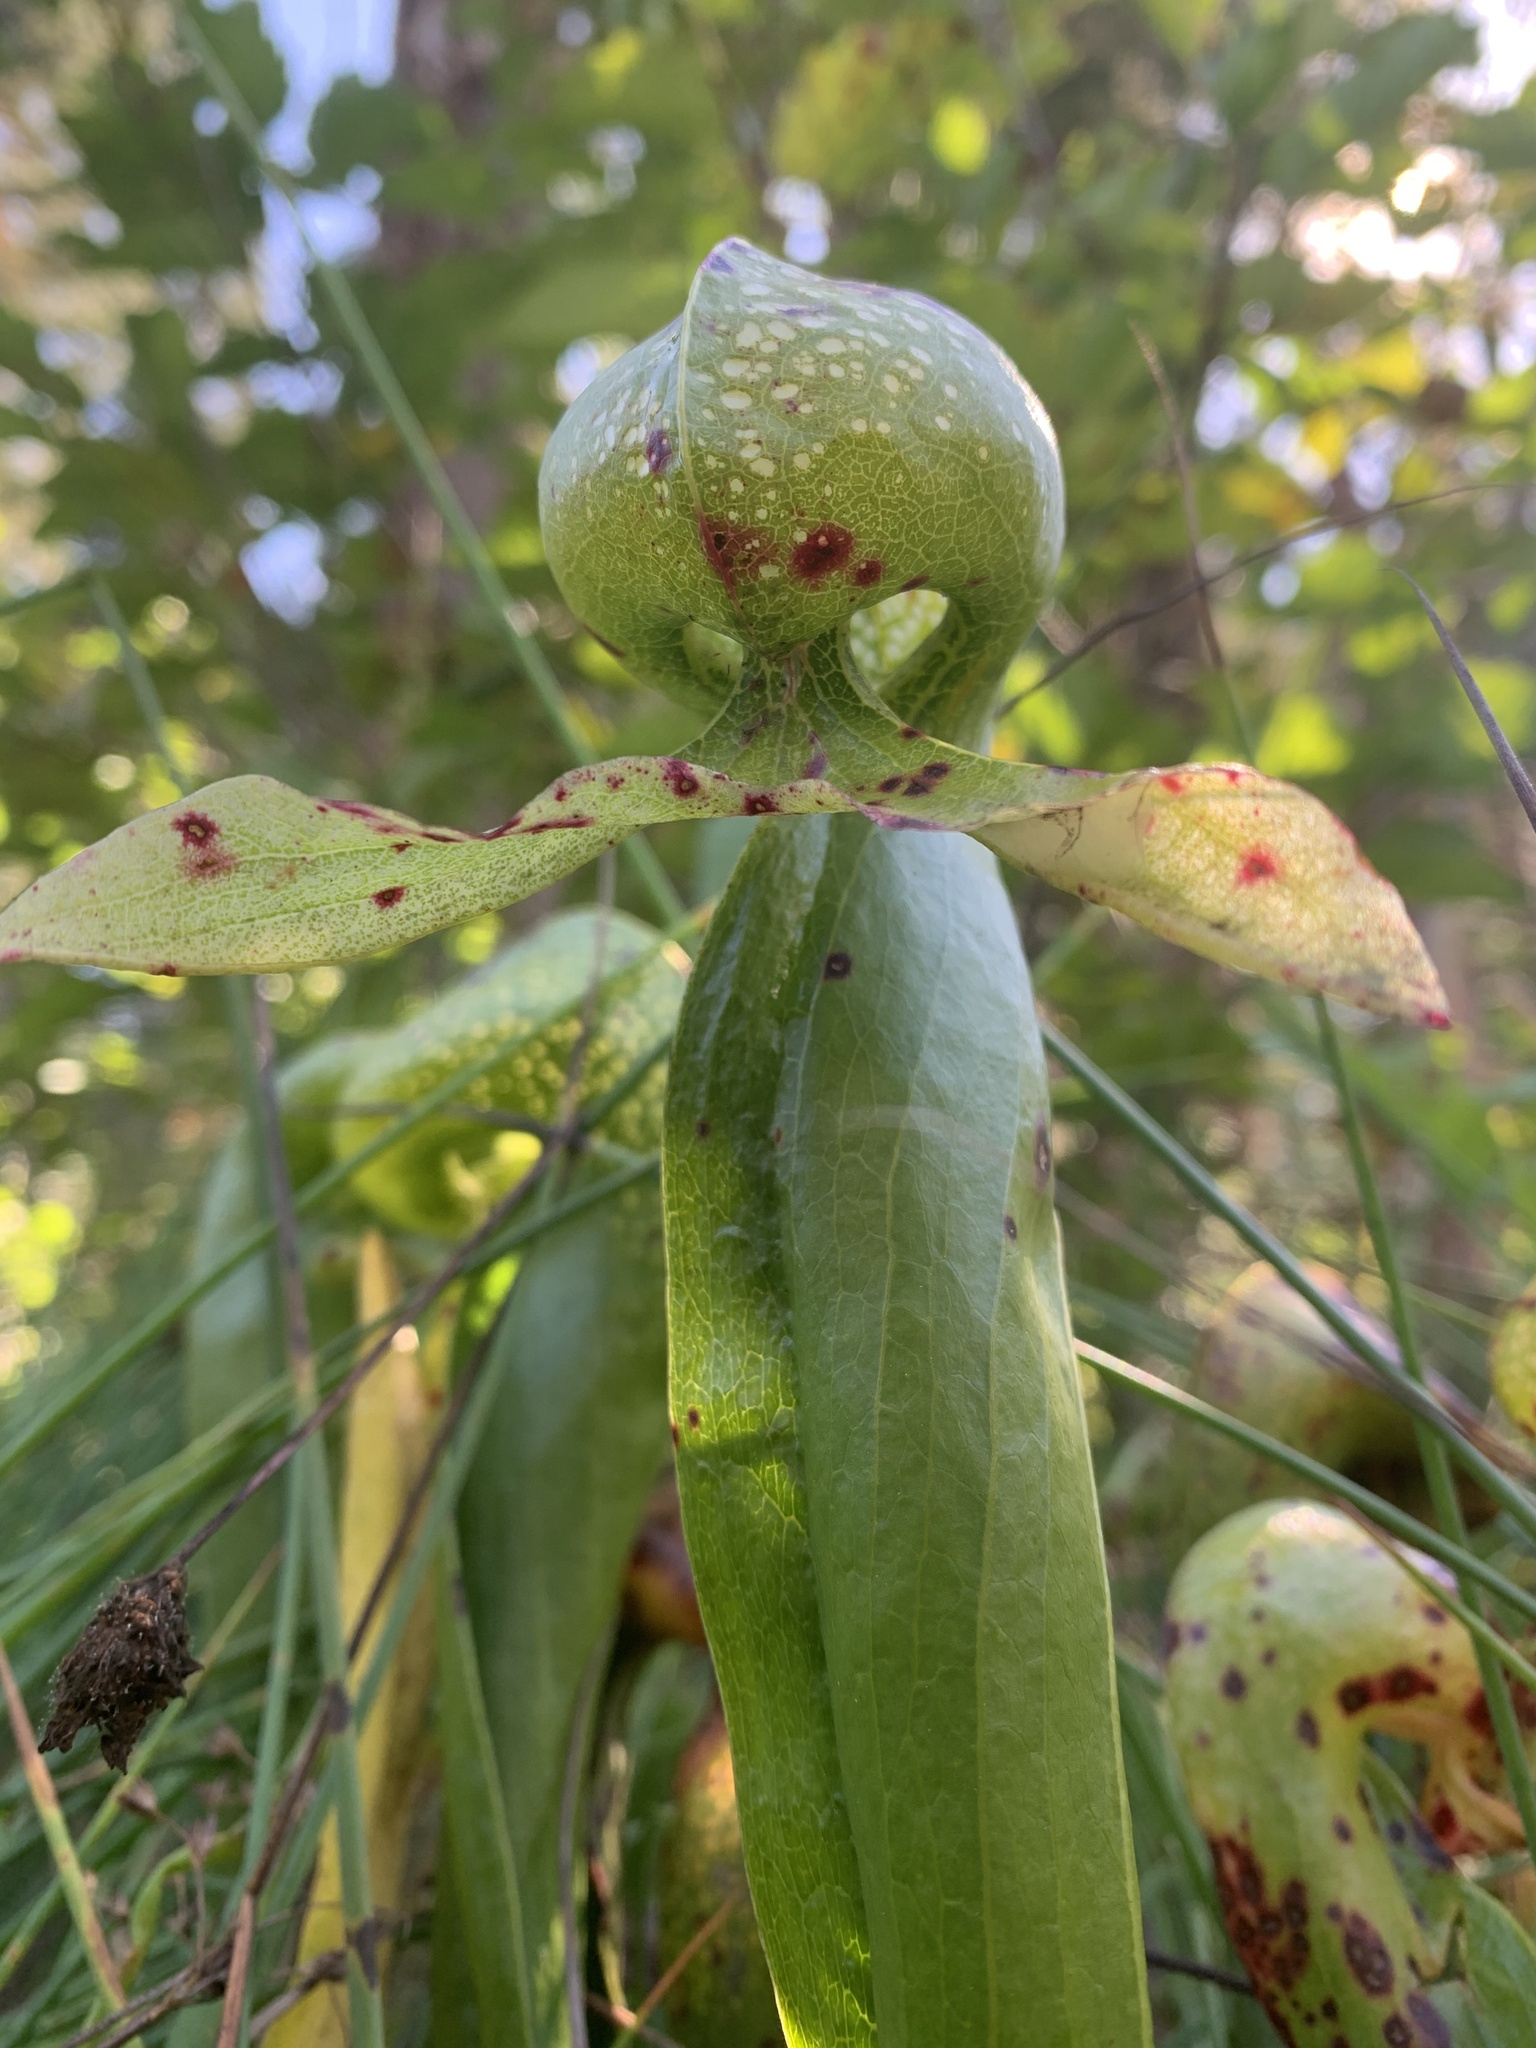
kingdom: Plantae
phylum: Tracheophyta
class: Magnoliopsida
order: Ericales
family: Sarraceniaceae
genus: Darlingtonia
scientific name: Darlingtonia californica
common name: California pitcher plant
